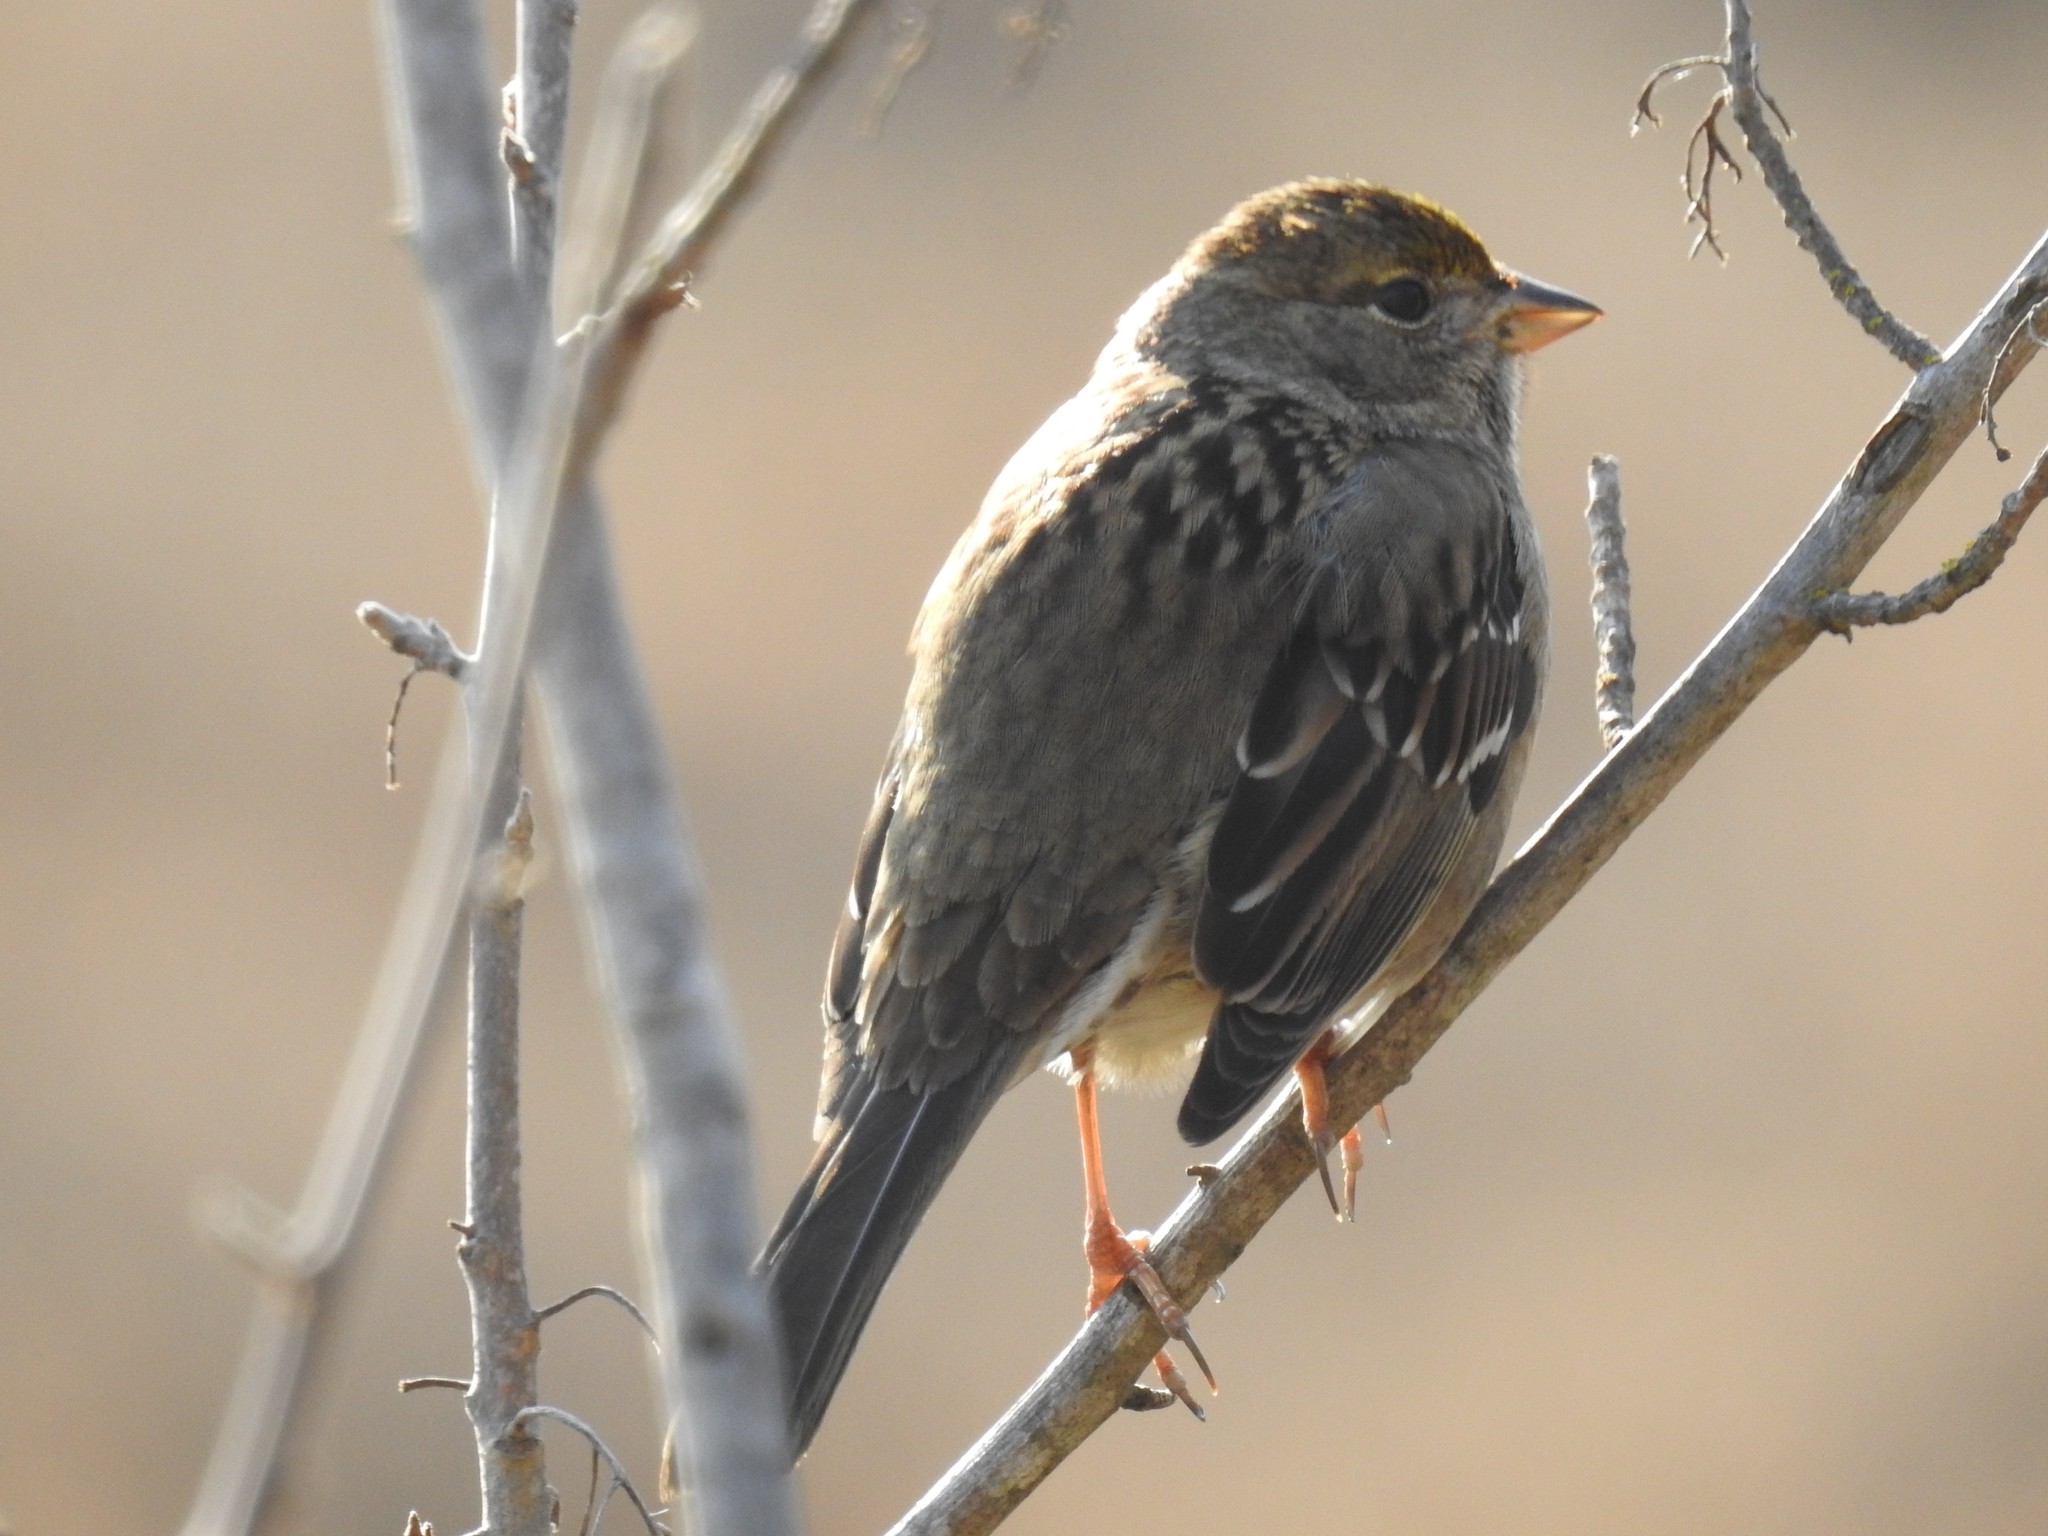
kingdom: Animalia
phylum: Chordata
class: Aves
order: Passeriformes
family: Passerellidae
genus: Zonotrichia
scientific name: Zonotrichia atricapilla
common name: Golden-crowned sparrow
